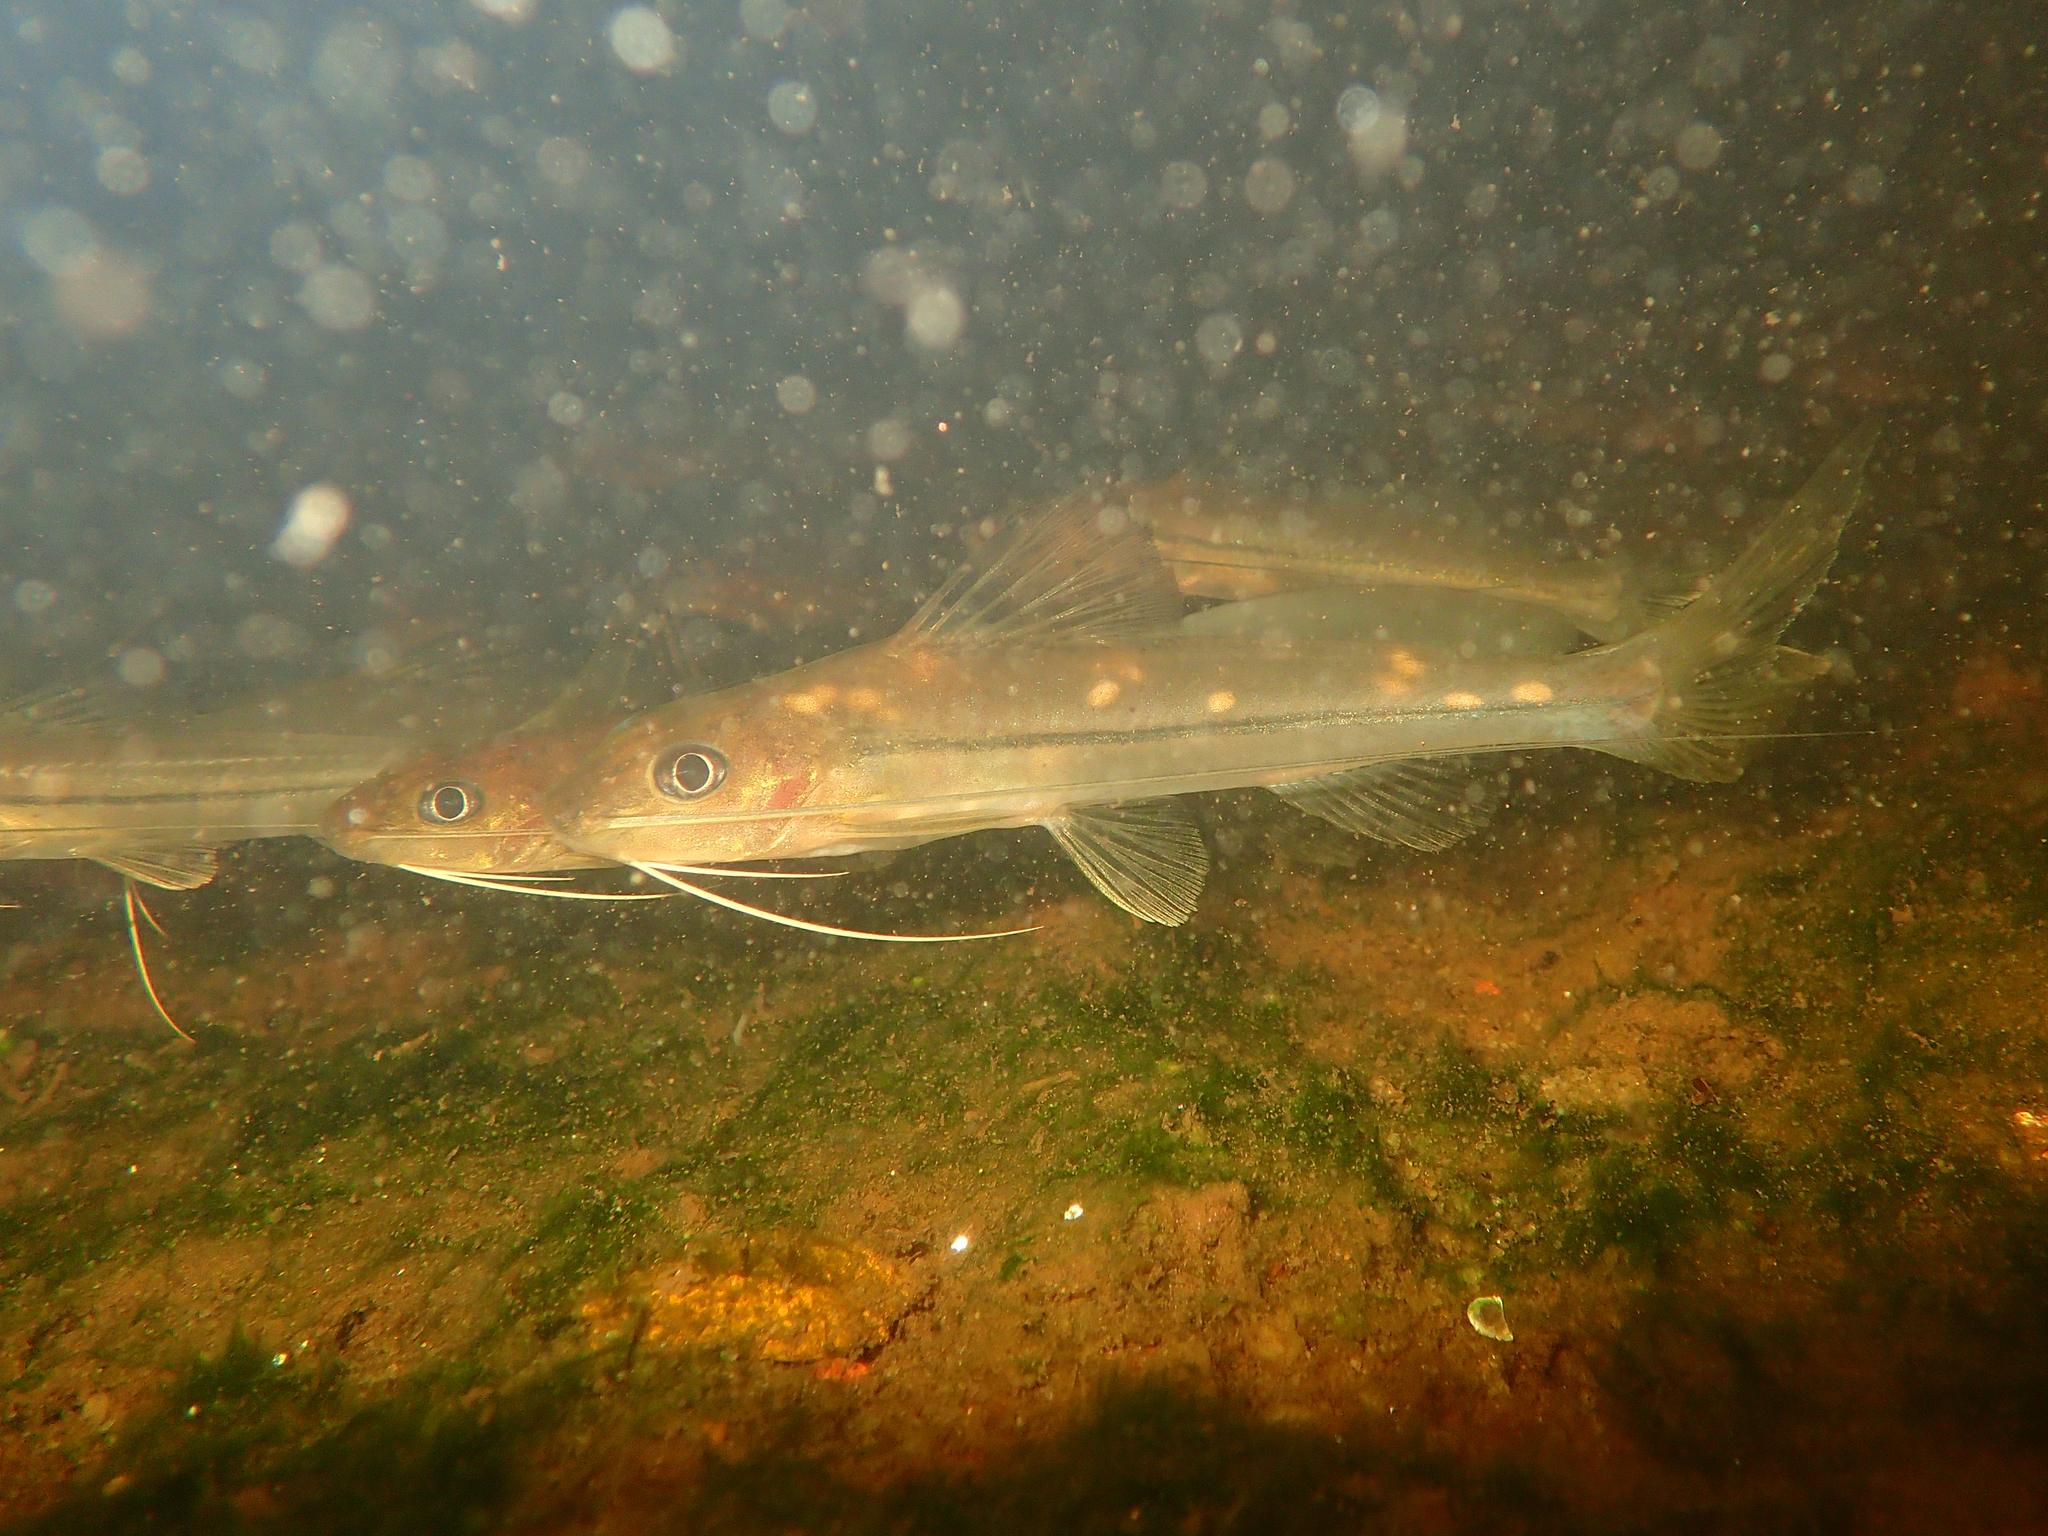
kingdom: Animalia
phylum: Chordata
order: Siluriformes
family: Heptapteridae
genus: Pimelodella
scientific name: Pimelodella cristata
